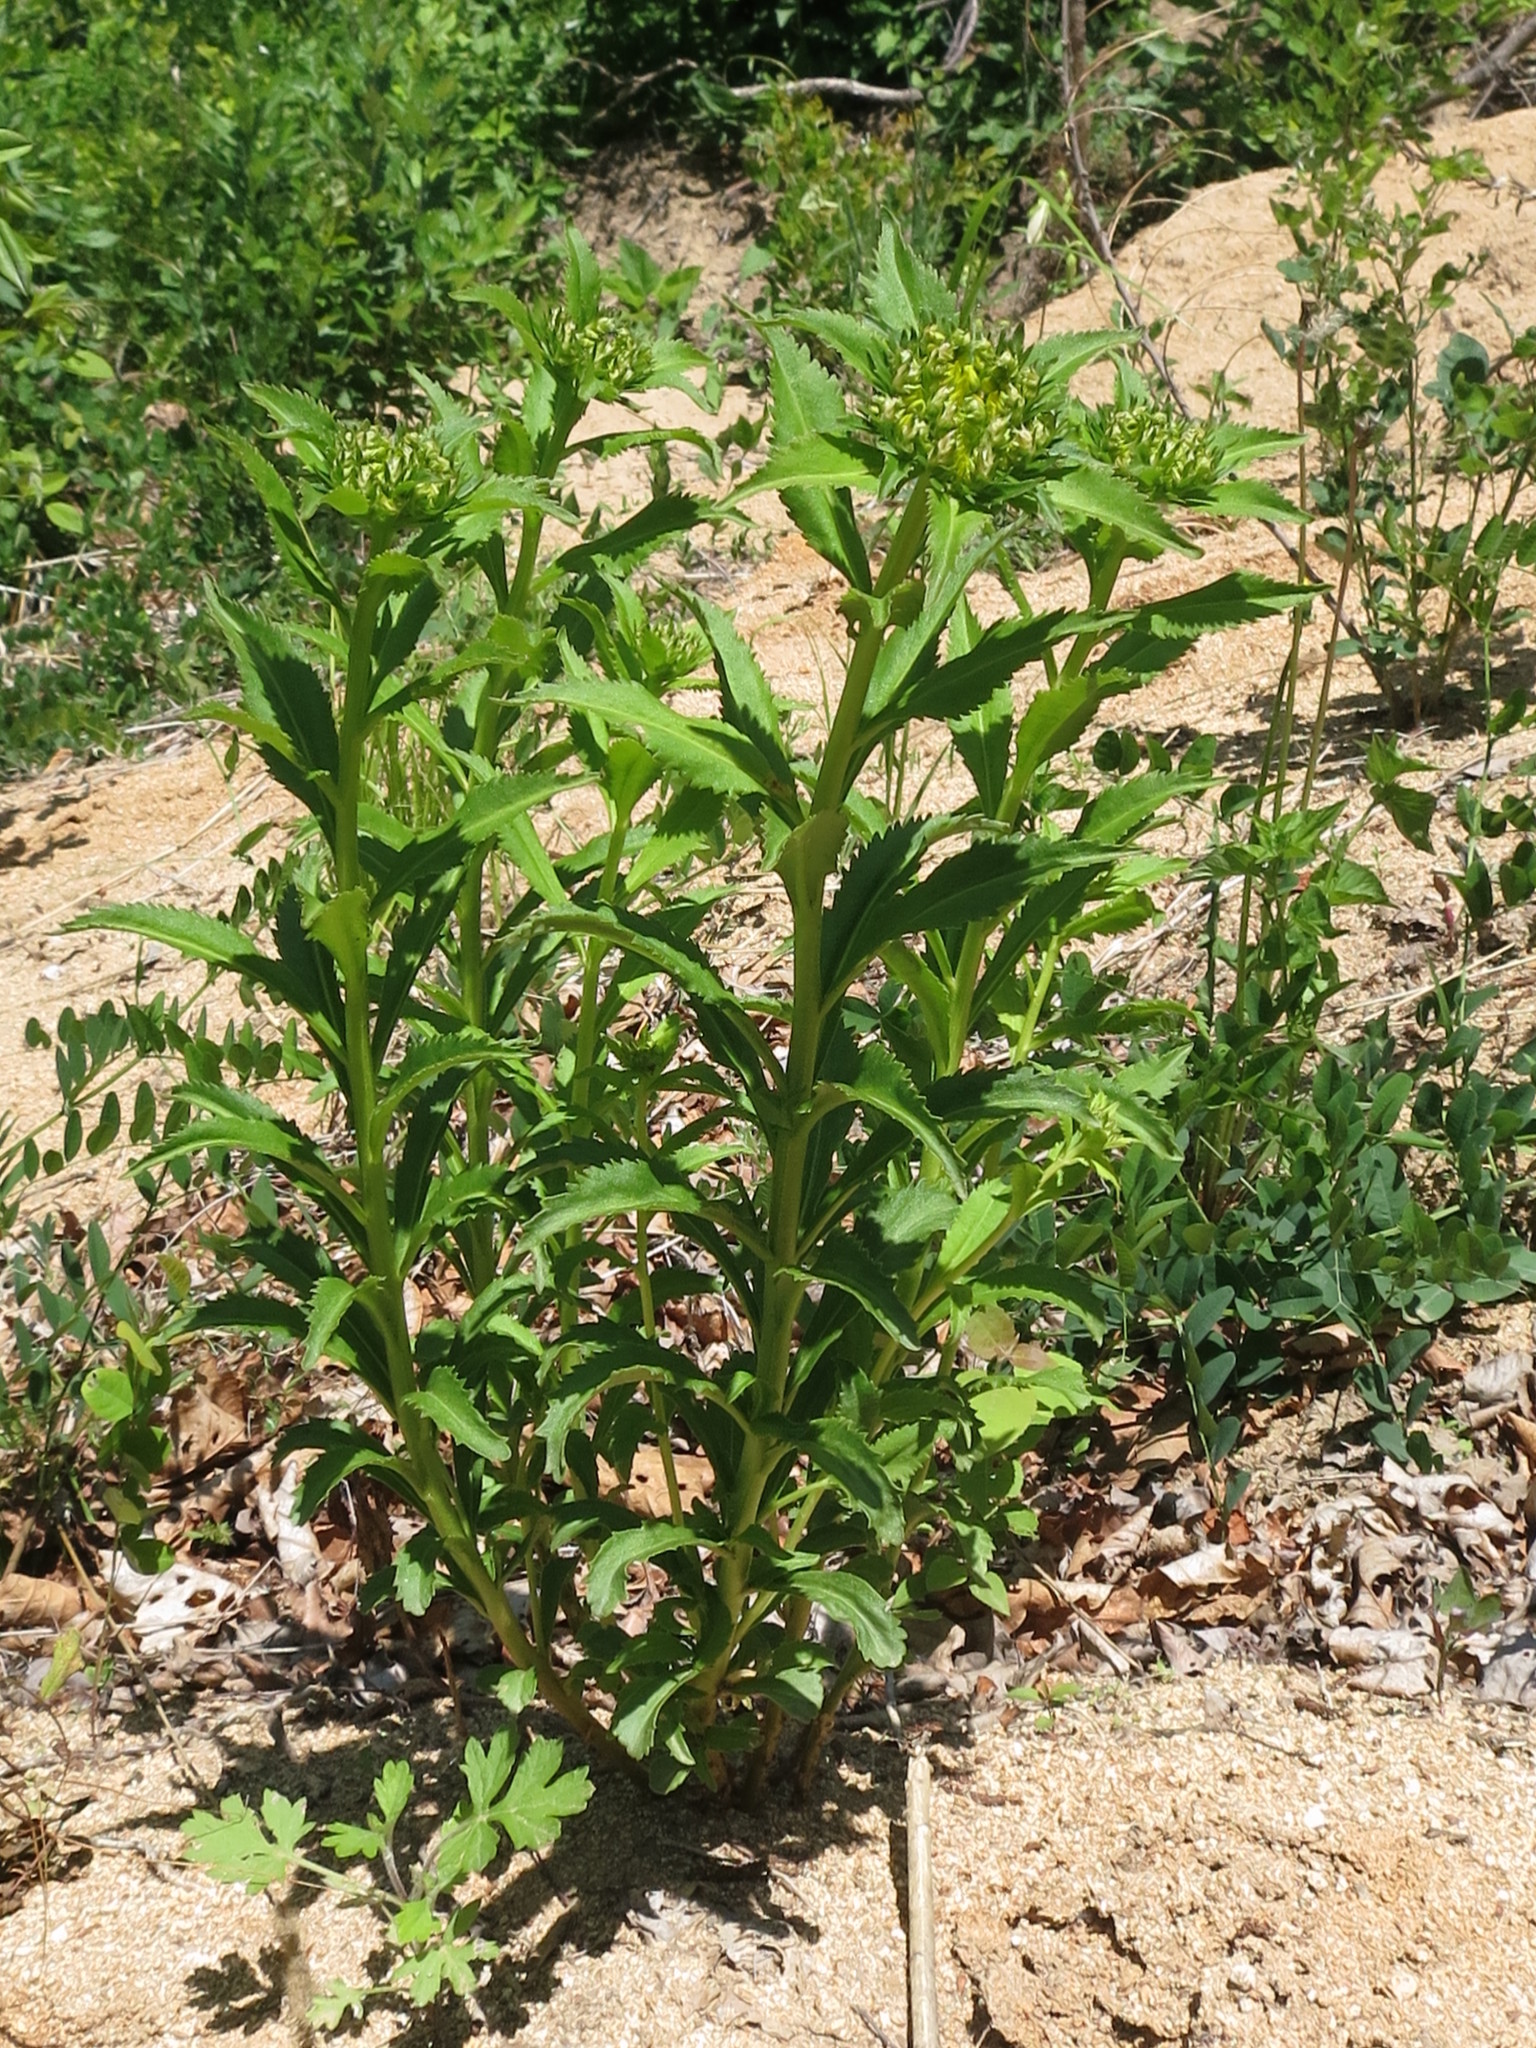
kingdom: Plantae
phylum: Tracheophyta
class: Magnoliopsida
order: Saxifragales
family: Crassulaceae
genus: Phedimus
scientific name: Phedimus aizoon
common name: Orpin aizoon
